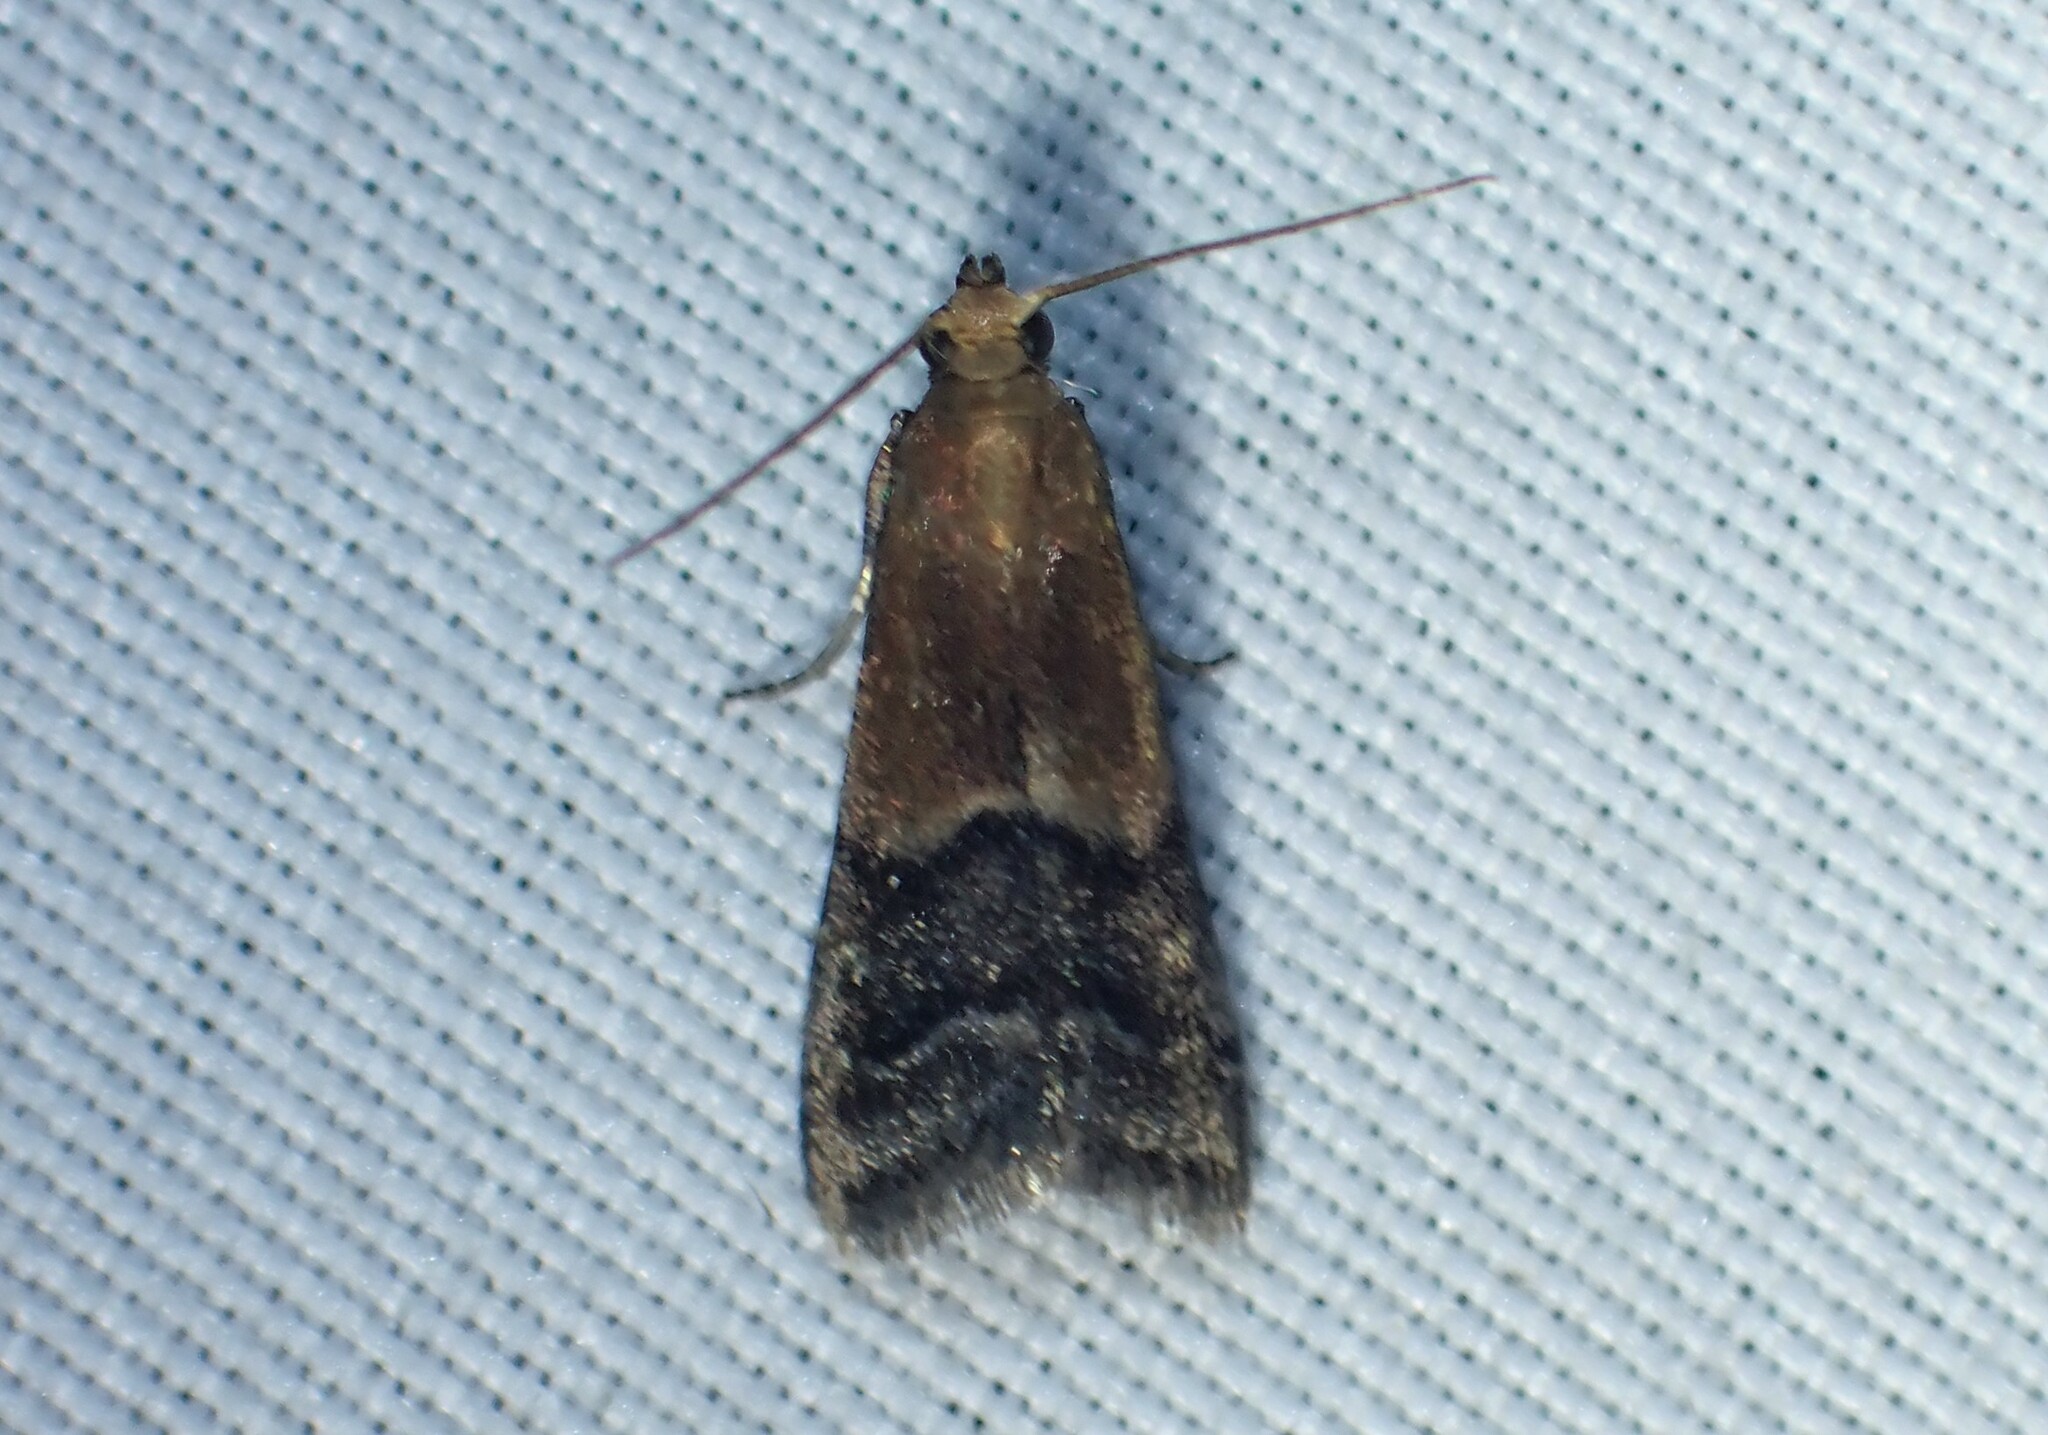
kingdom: Animalia
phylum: Arthropoda
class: Insecta
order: Lepidoptera
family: Pyralidae
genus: Eulogia
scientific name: Eulogia ochrifrontella
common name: Broad-banded eulogia moth
